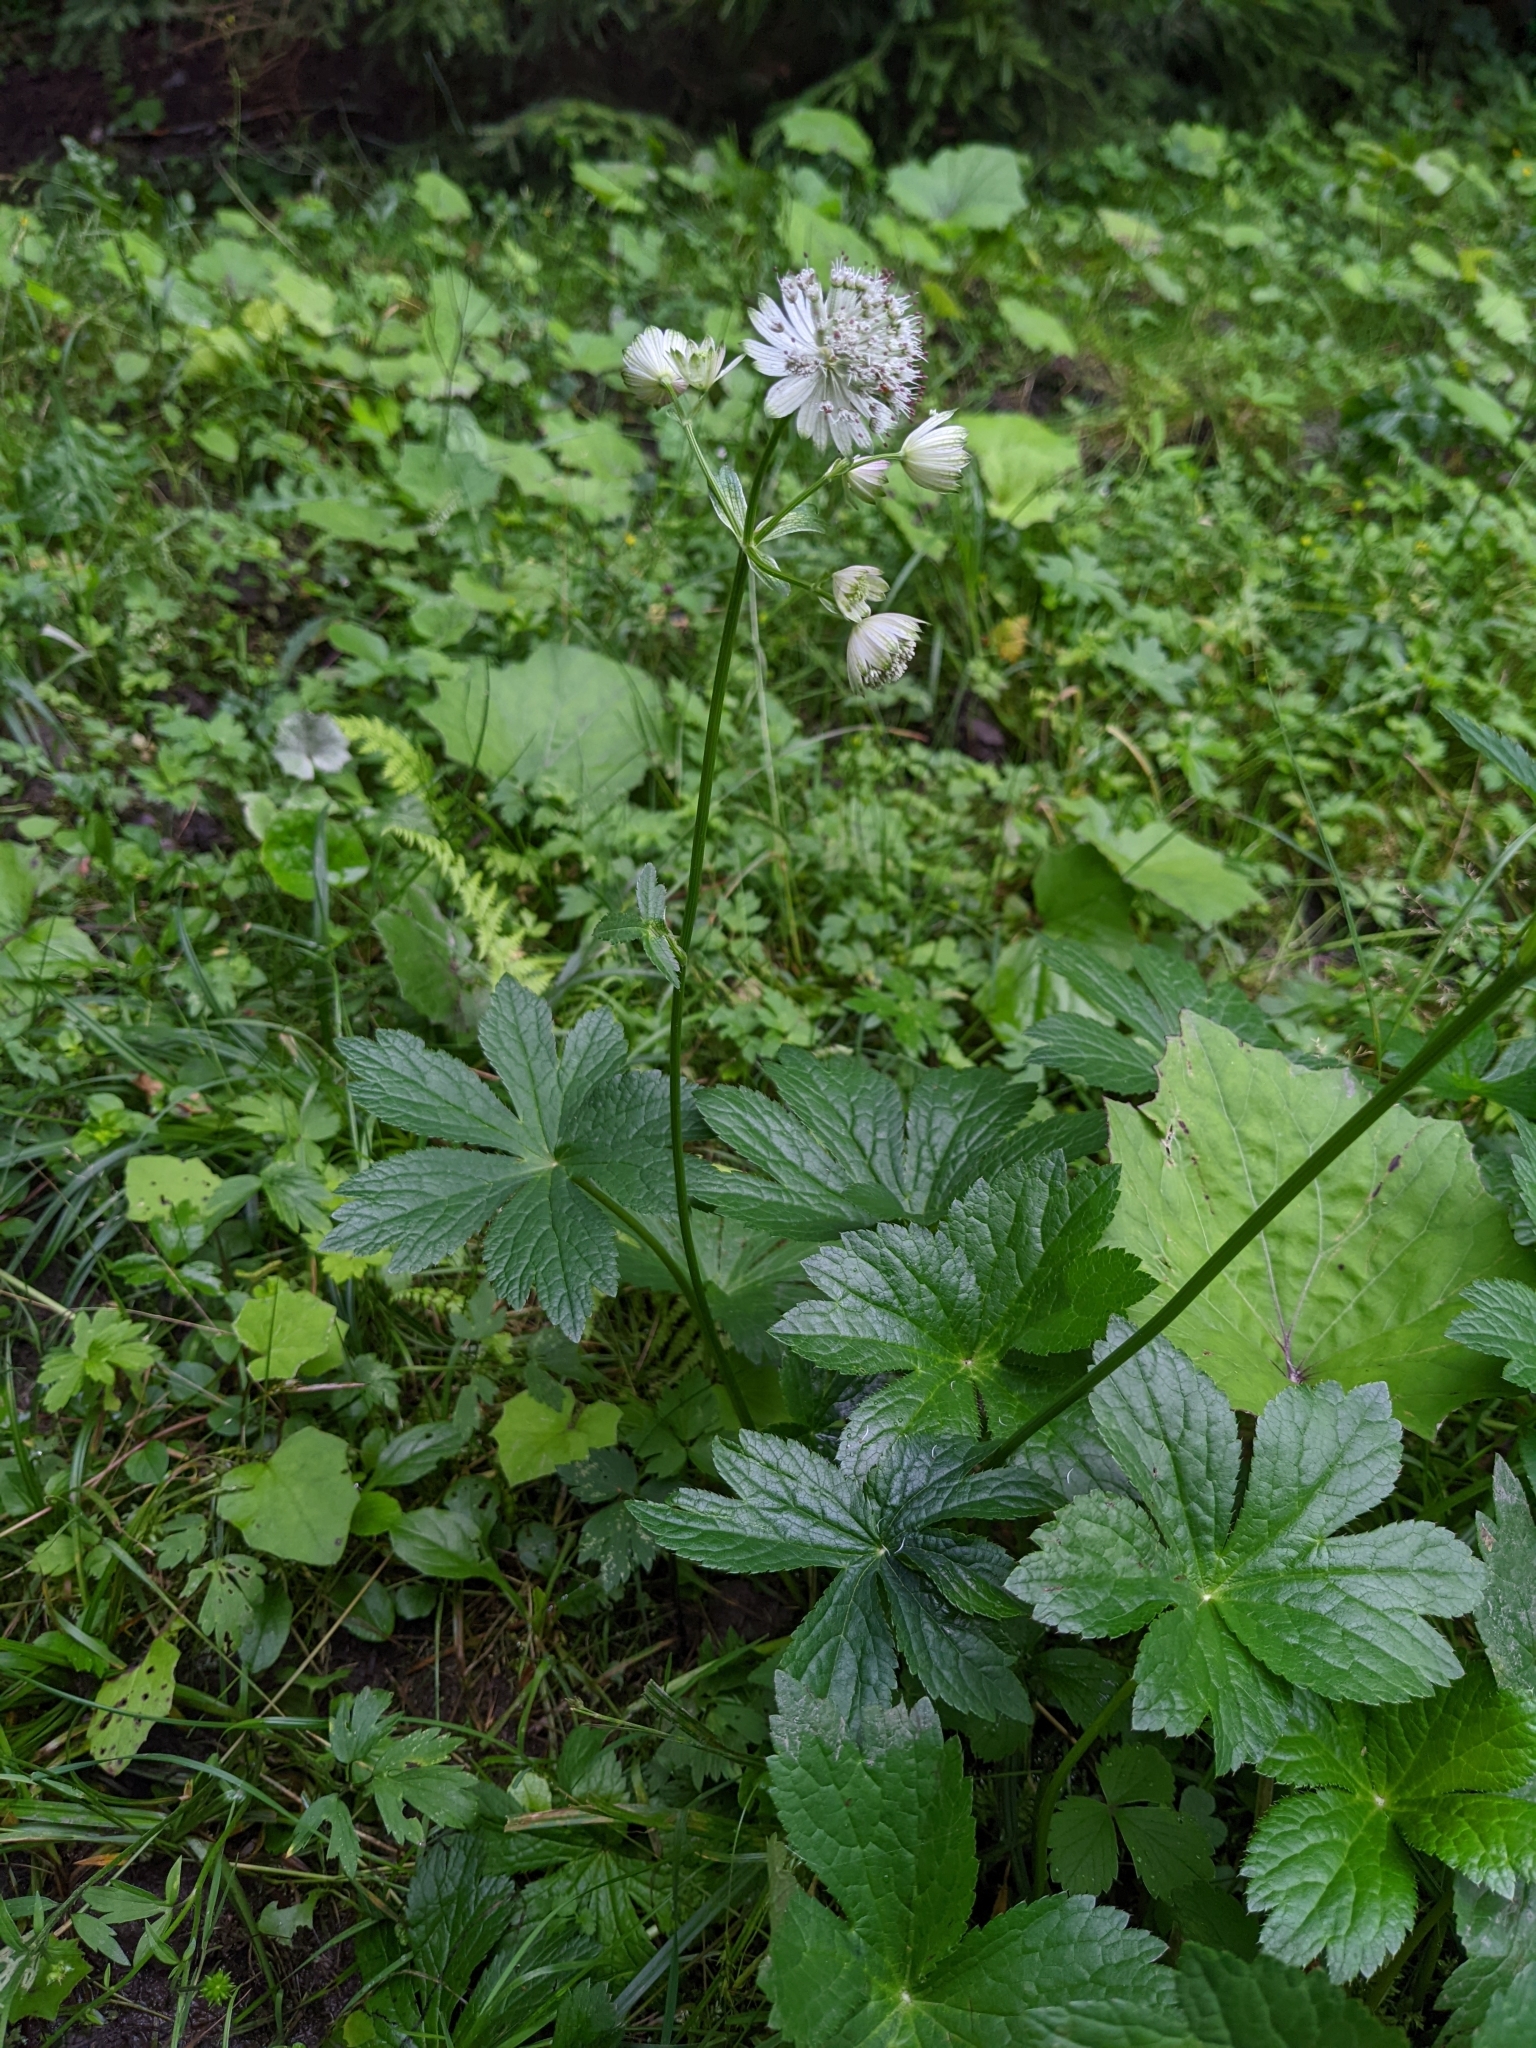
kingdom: Plantae
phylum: Tracheophyta
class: Magnoliopsida
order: Apiales
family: Apiaceae
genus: Astrantia
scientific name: Astrantia major
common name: Greater masterwort
